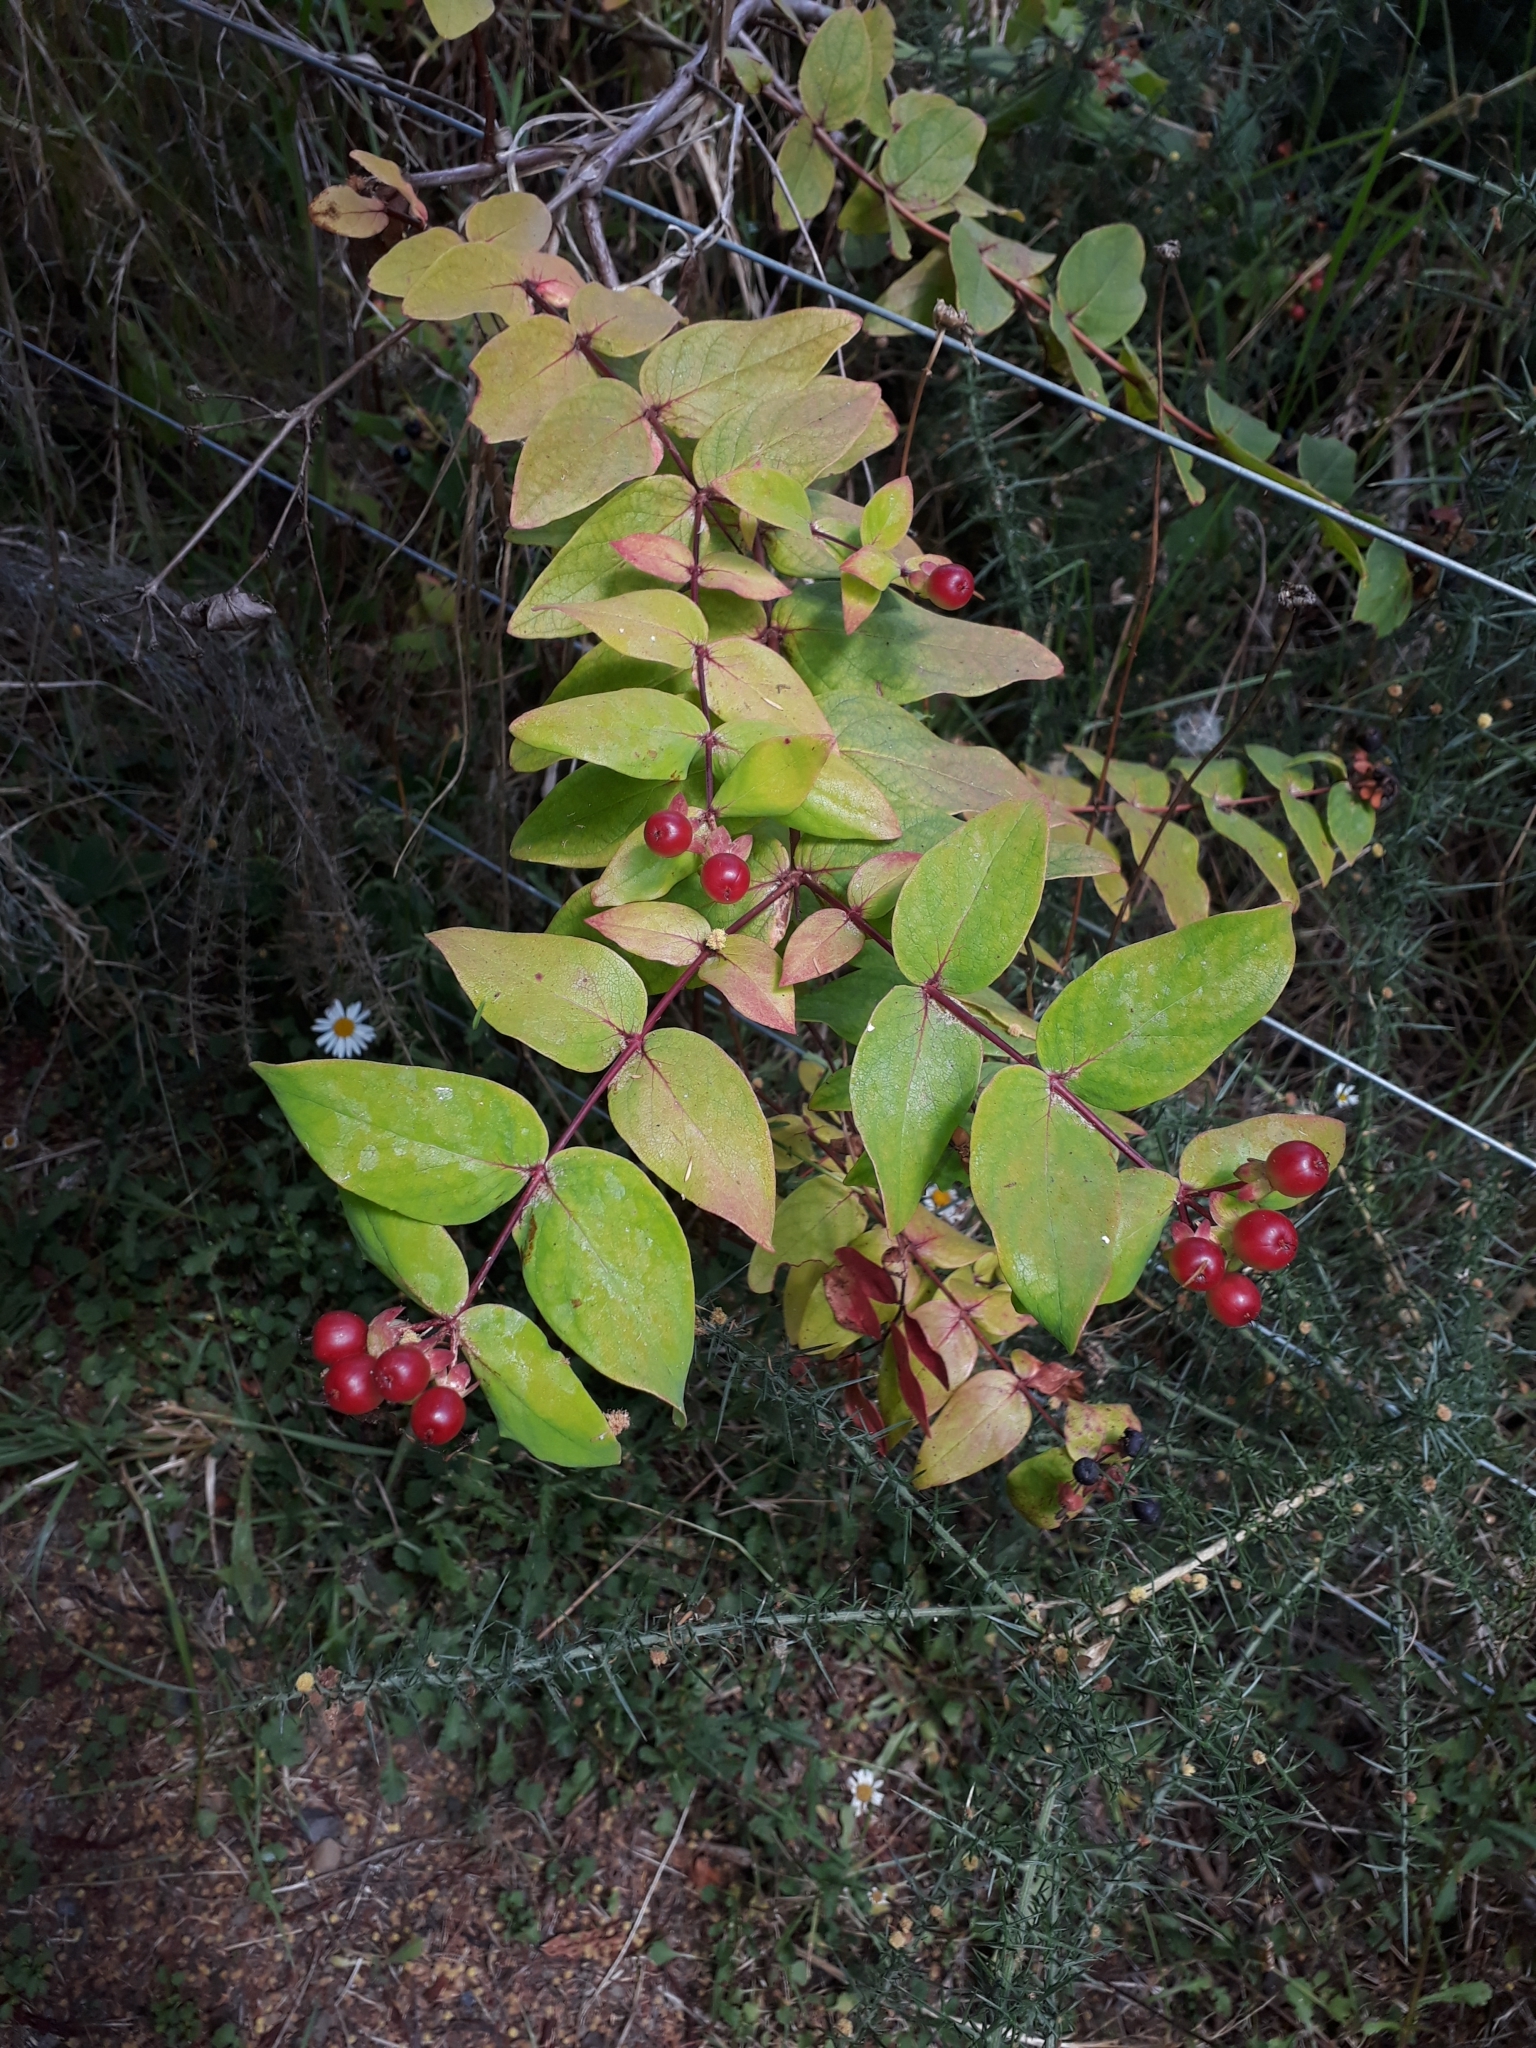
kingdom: Plantae
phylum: Tracheophyta
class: Magnoliopsida
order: Malpighiales
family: Hypericaceae
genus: Hypericum
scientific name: Hypericum androsaemum
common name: Sweet-amber
